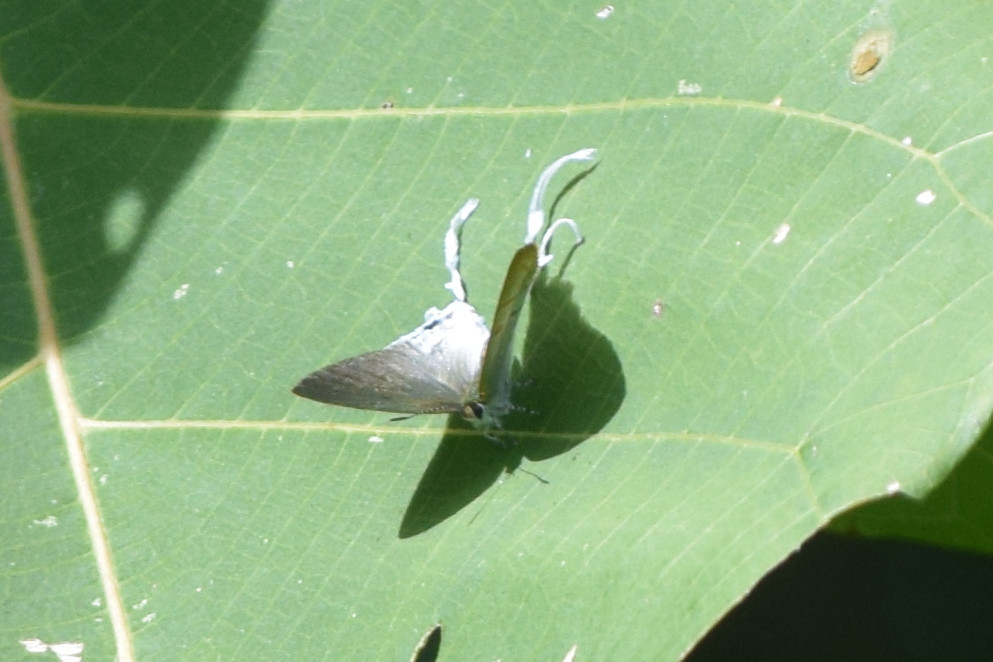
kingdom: Animalia
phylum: Arthropoda
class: Insecta
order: Lepidoptera
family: Lycaenidae
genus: Zeltus
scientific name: Zeltus amasa
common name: Fluffy tit
